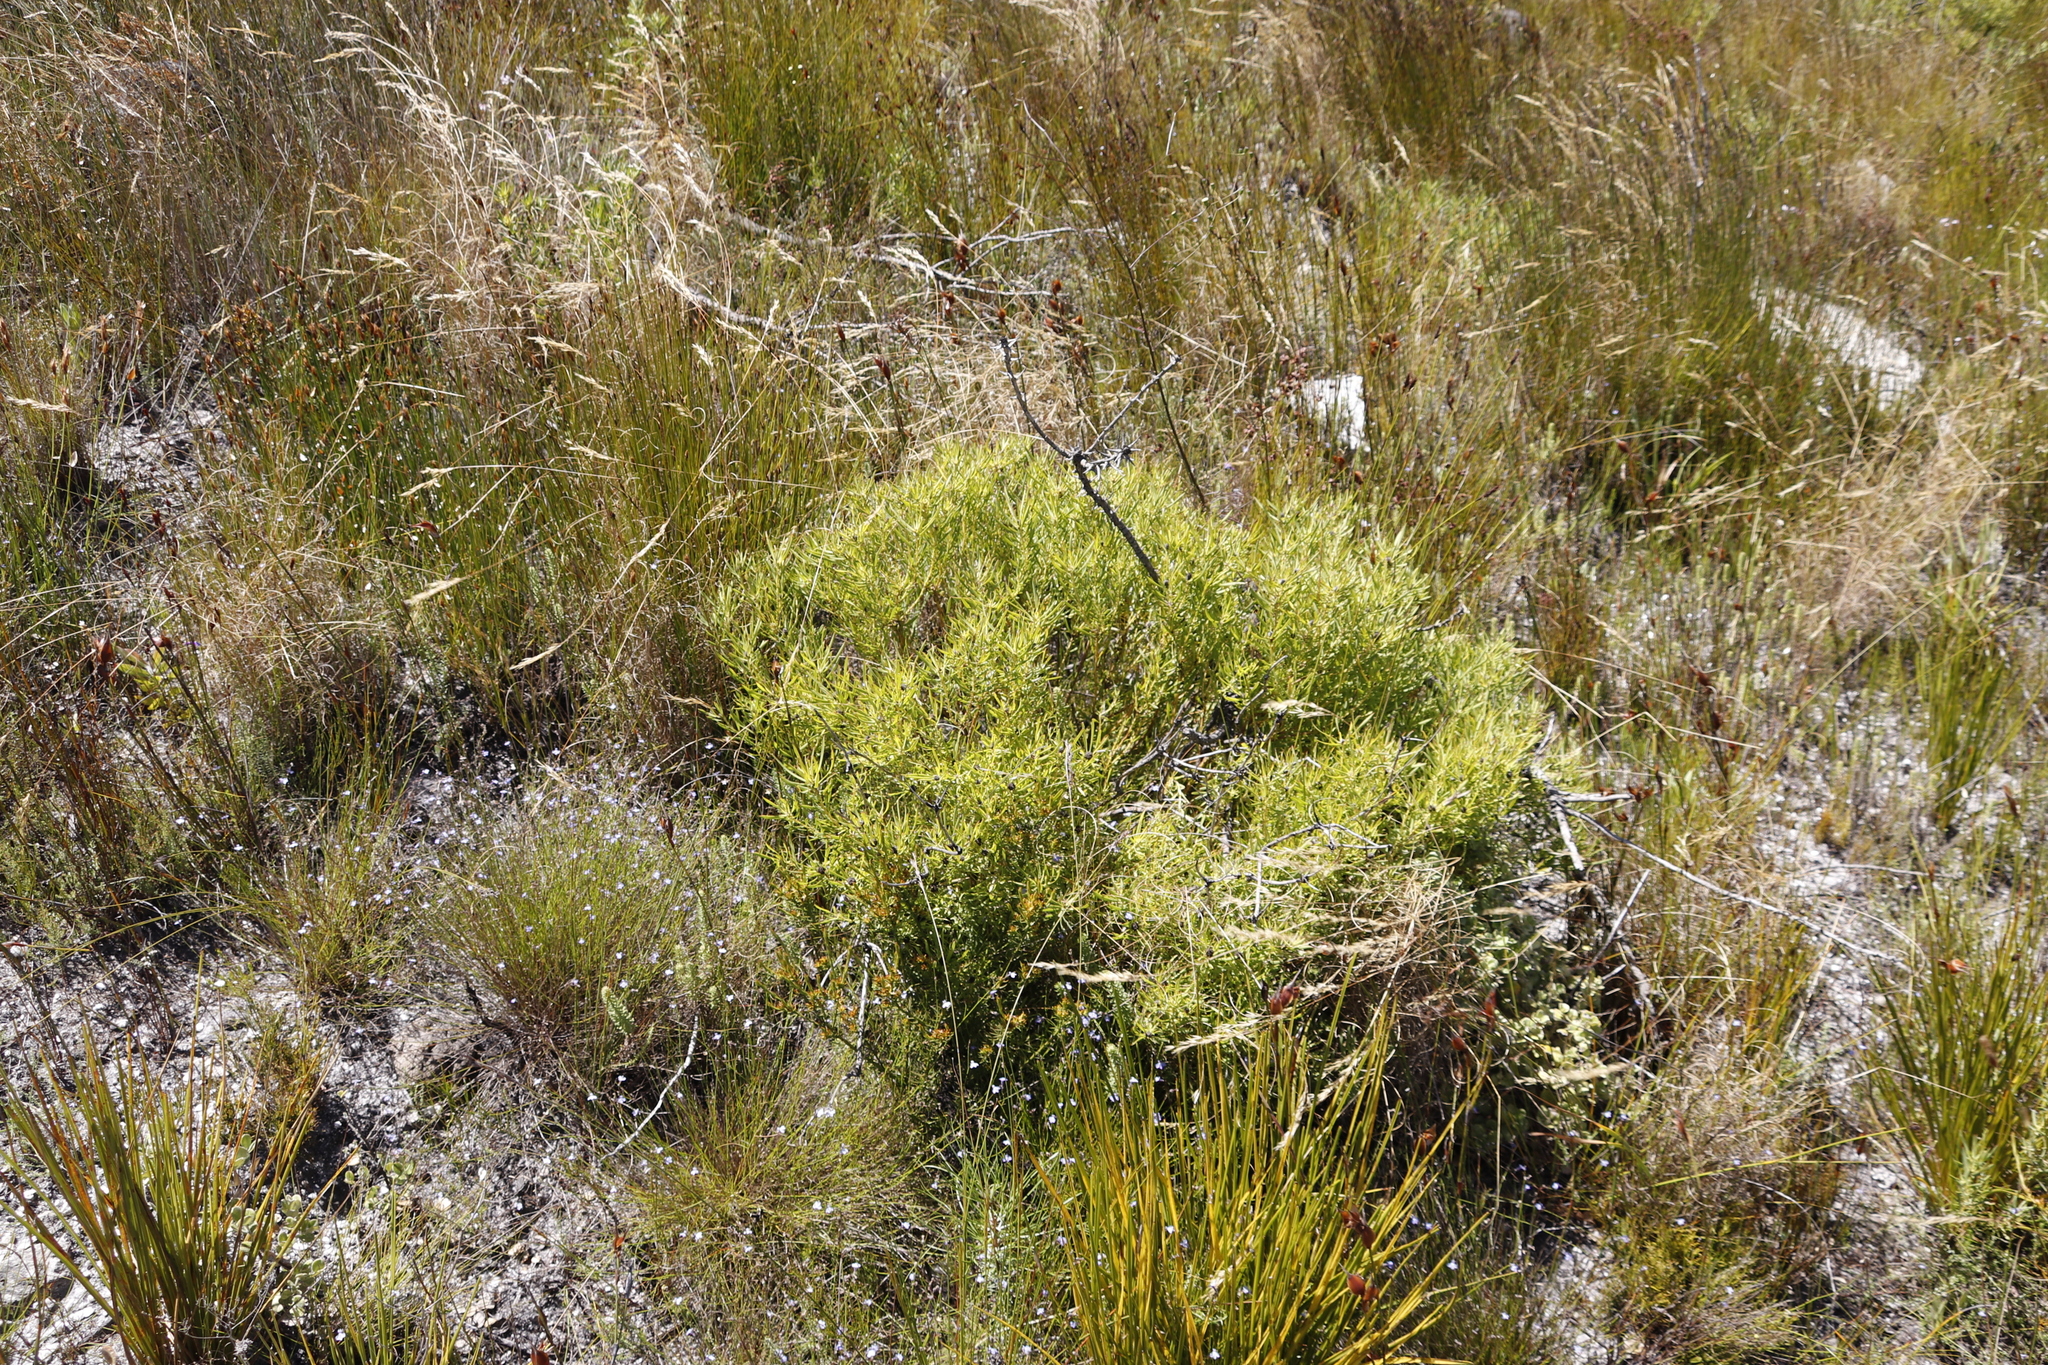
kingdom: Plantae
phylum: Tracheophyta
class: Magnoliopsida
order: Proteales
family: Proteaceae
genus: Leucadendron
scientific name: Leucadendron salignum
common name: Common sunshine conebush
